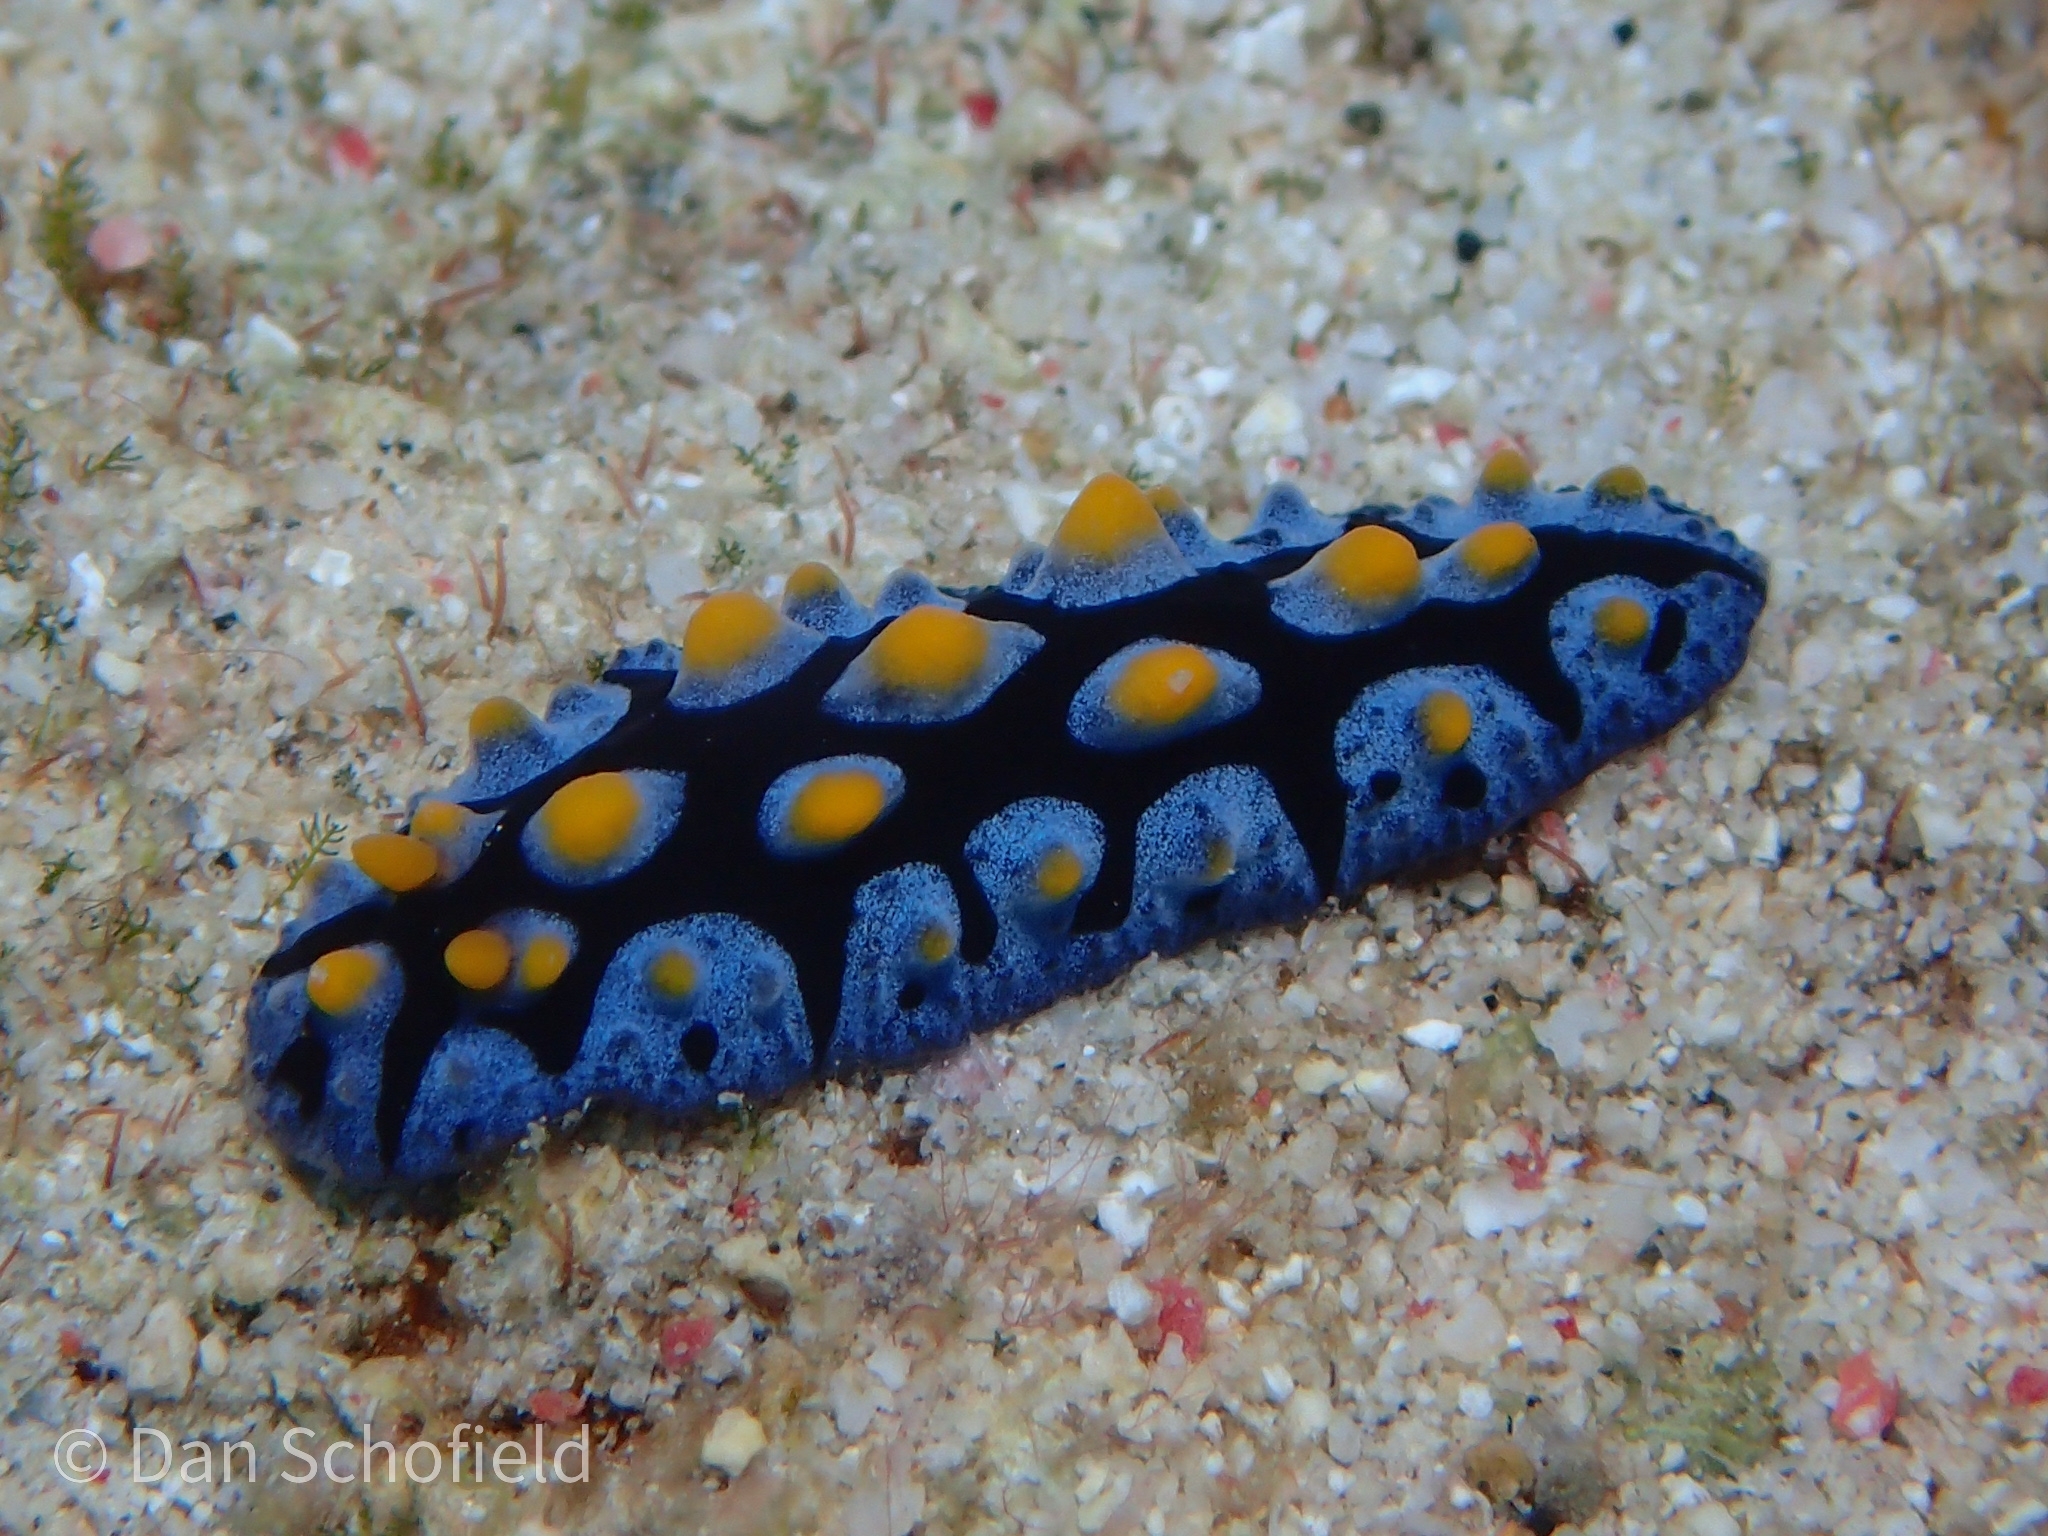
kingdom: Animalia
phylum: Mollusca
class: Gastropoda
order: Nudibranchia
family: Phyllidiidae
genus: Phyllidia
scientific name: Phyllidia picta
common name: Black-rayed phyllidia
